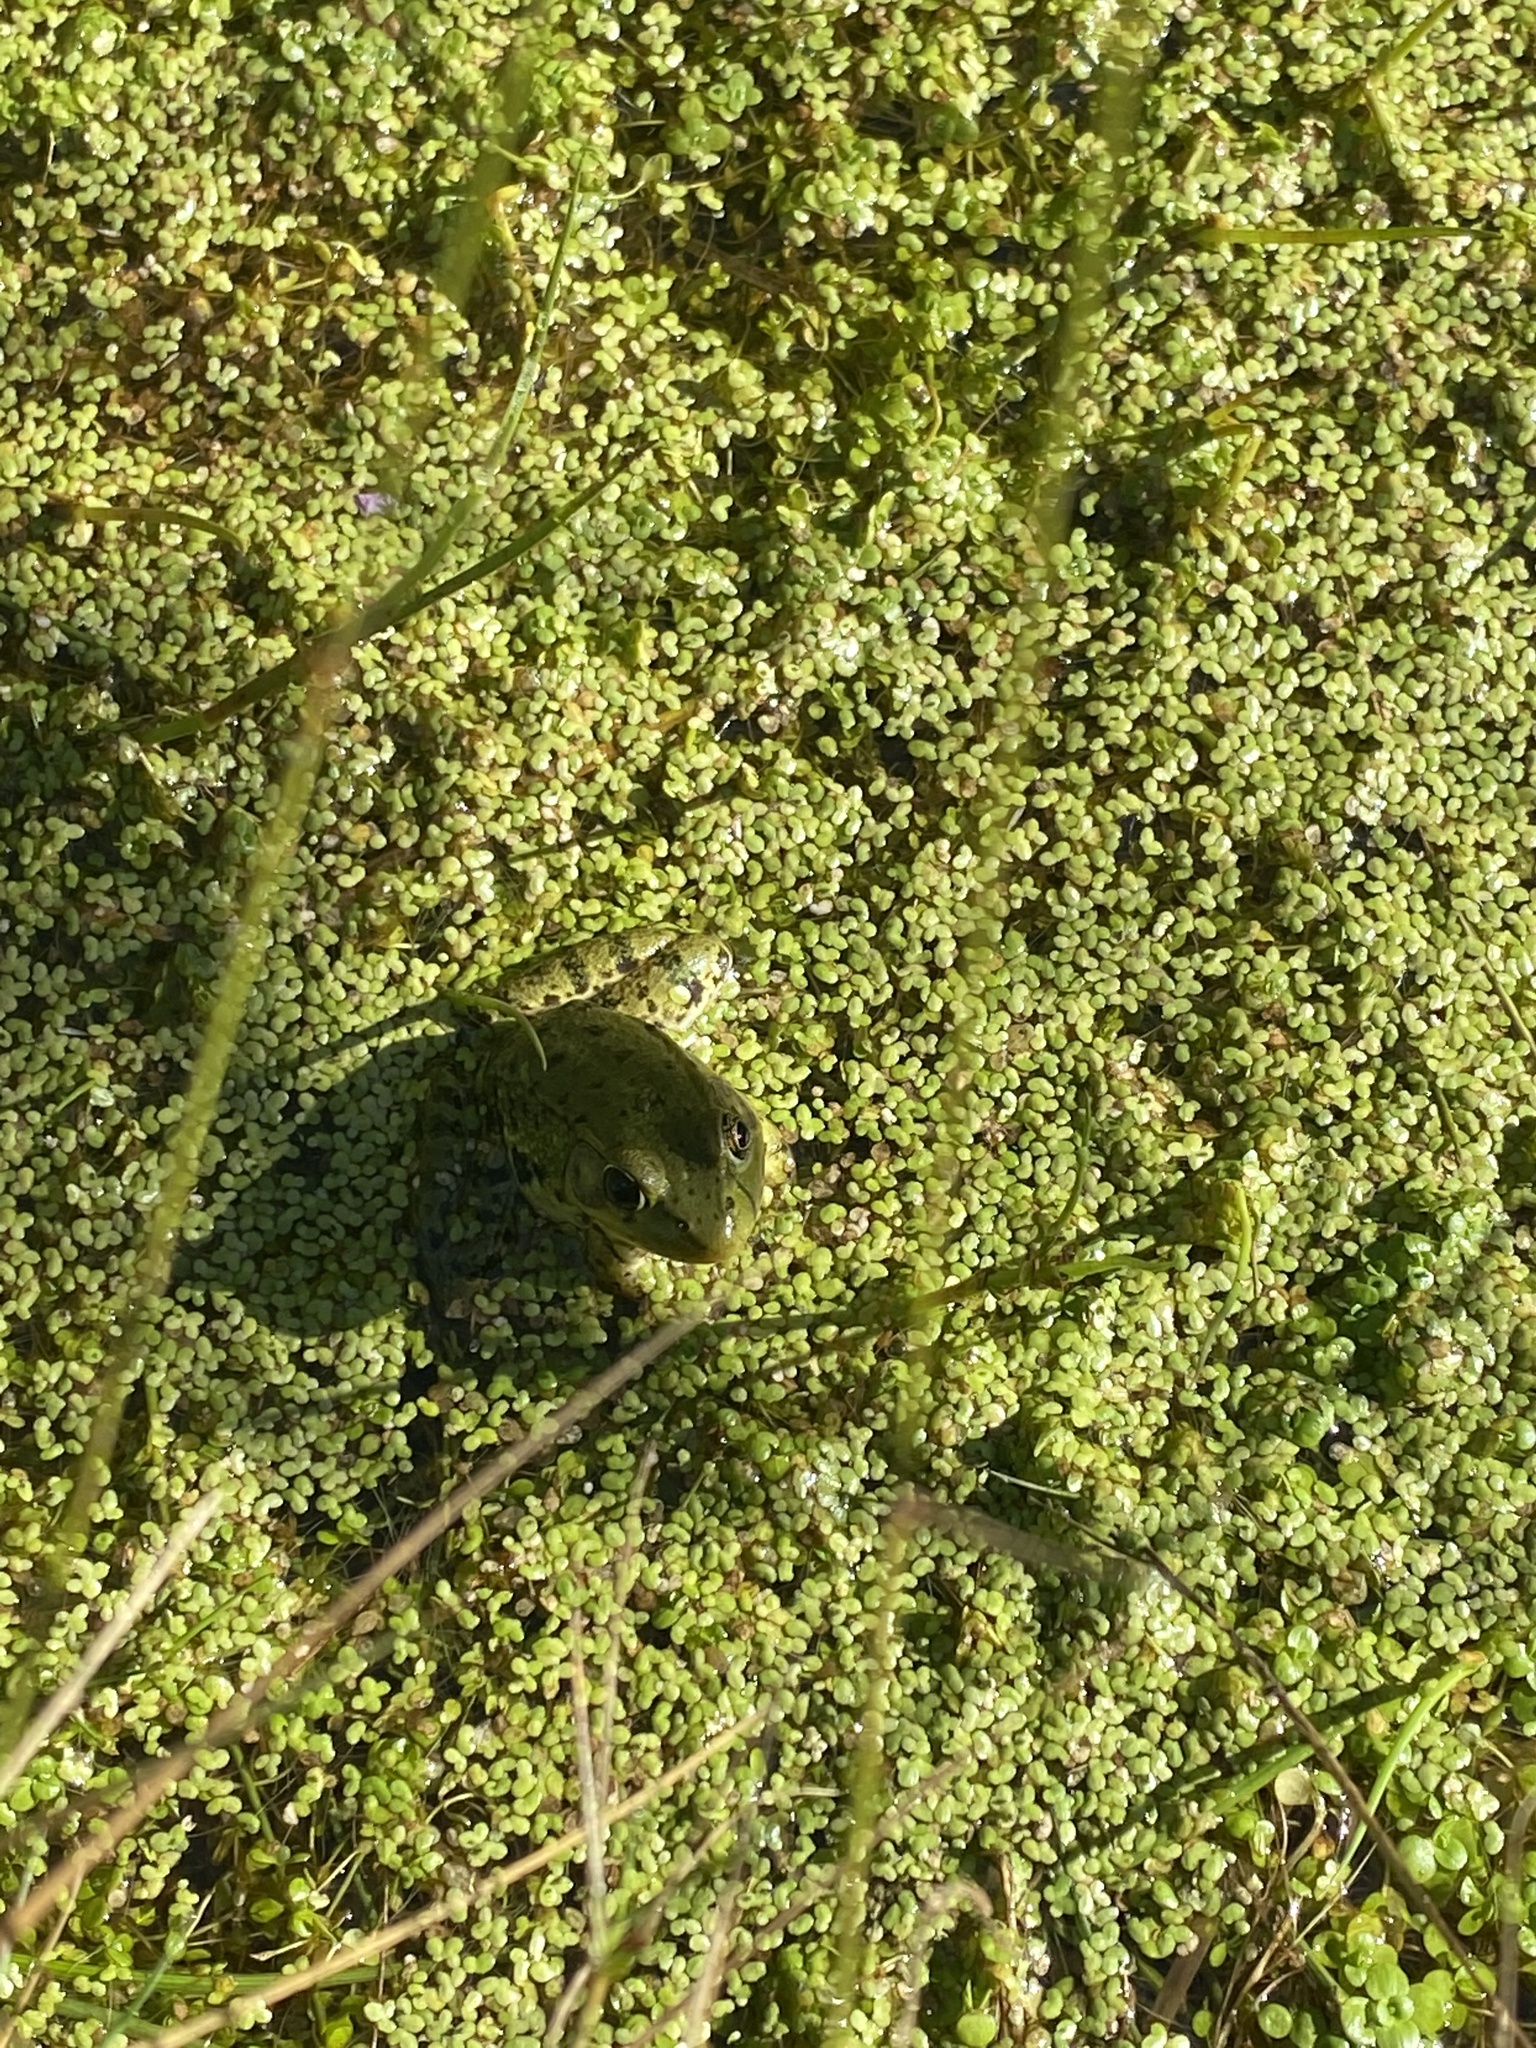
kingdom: Animalia
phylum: Chordata
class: Amphibia
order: Anura
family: Ranidae
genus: Lithobates
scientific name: Lithobates clamitans
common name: Green frog
